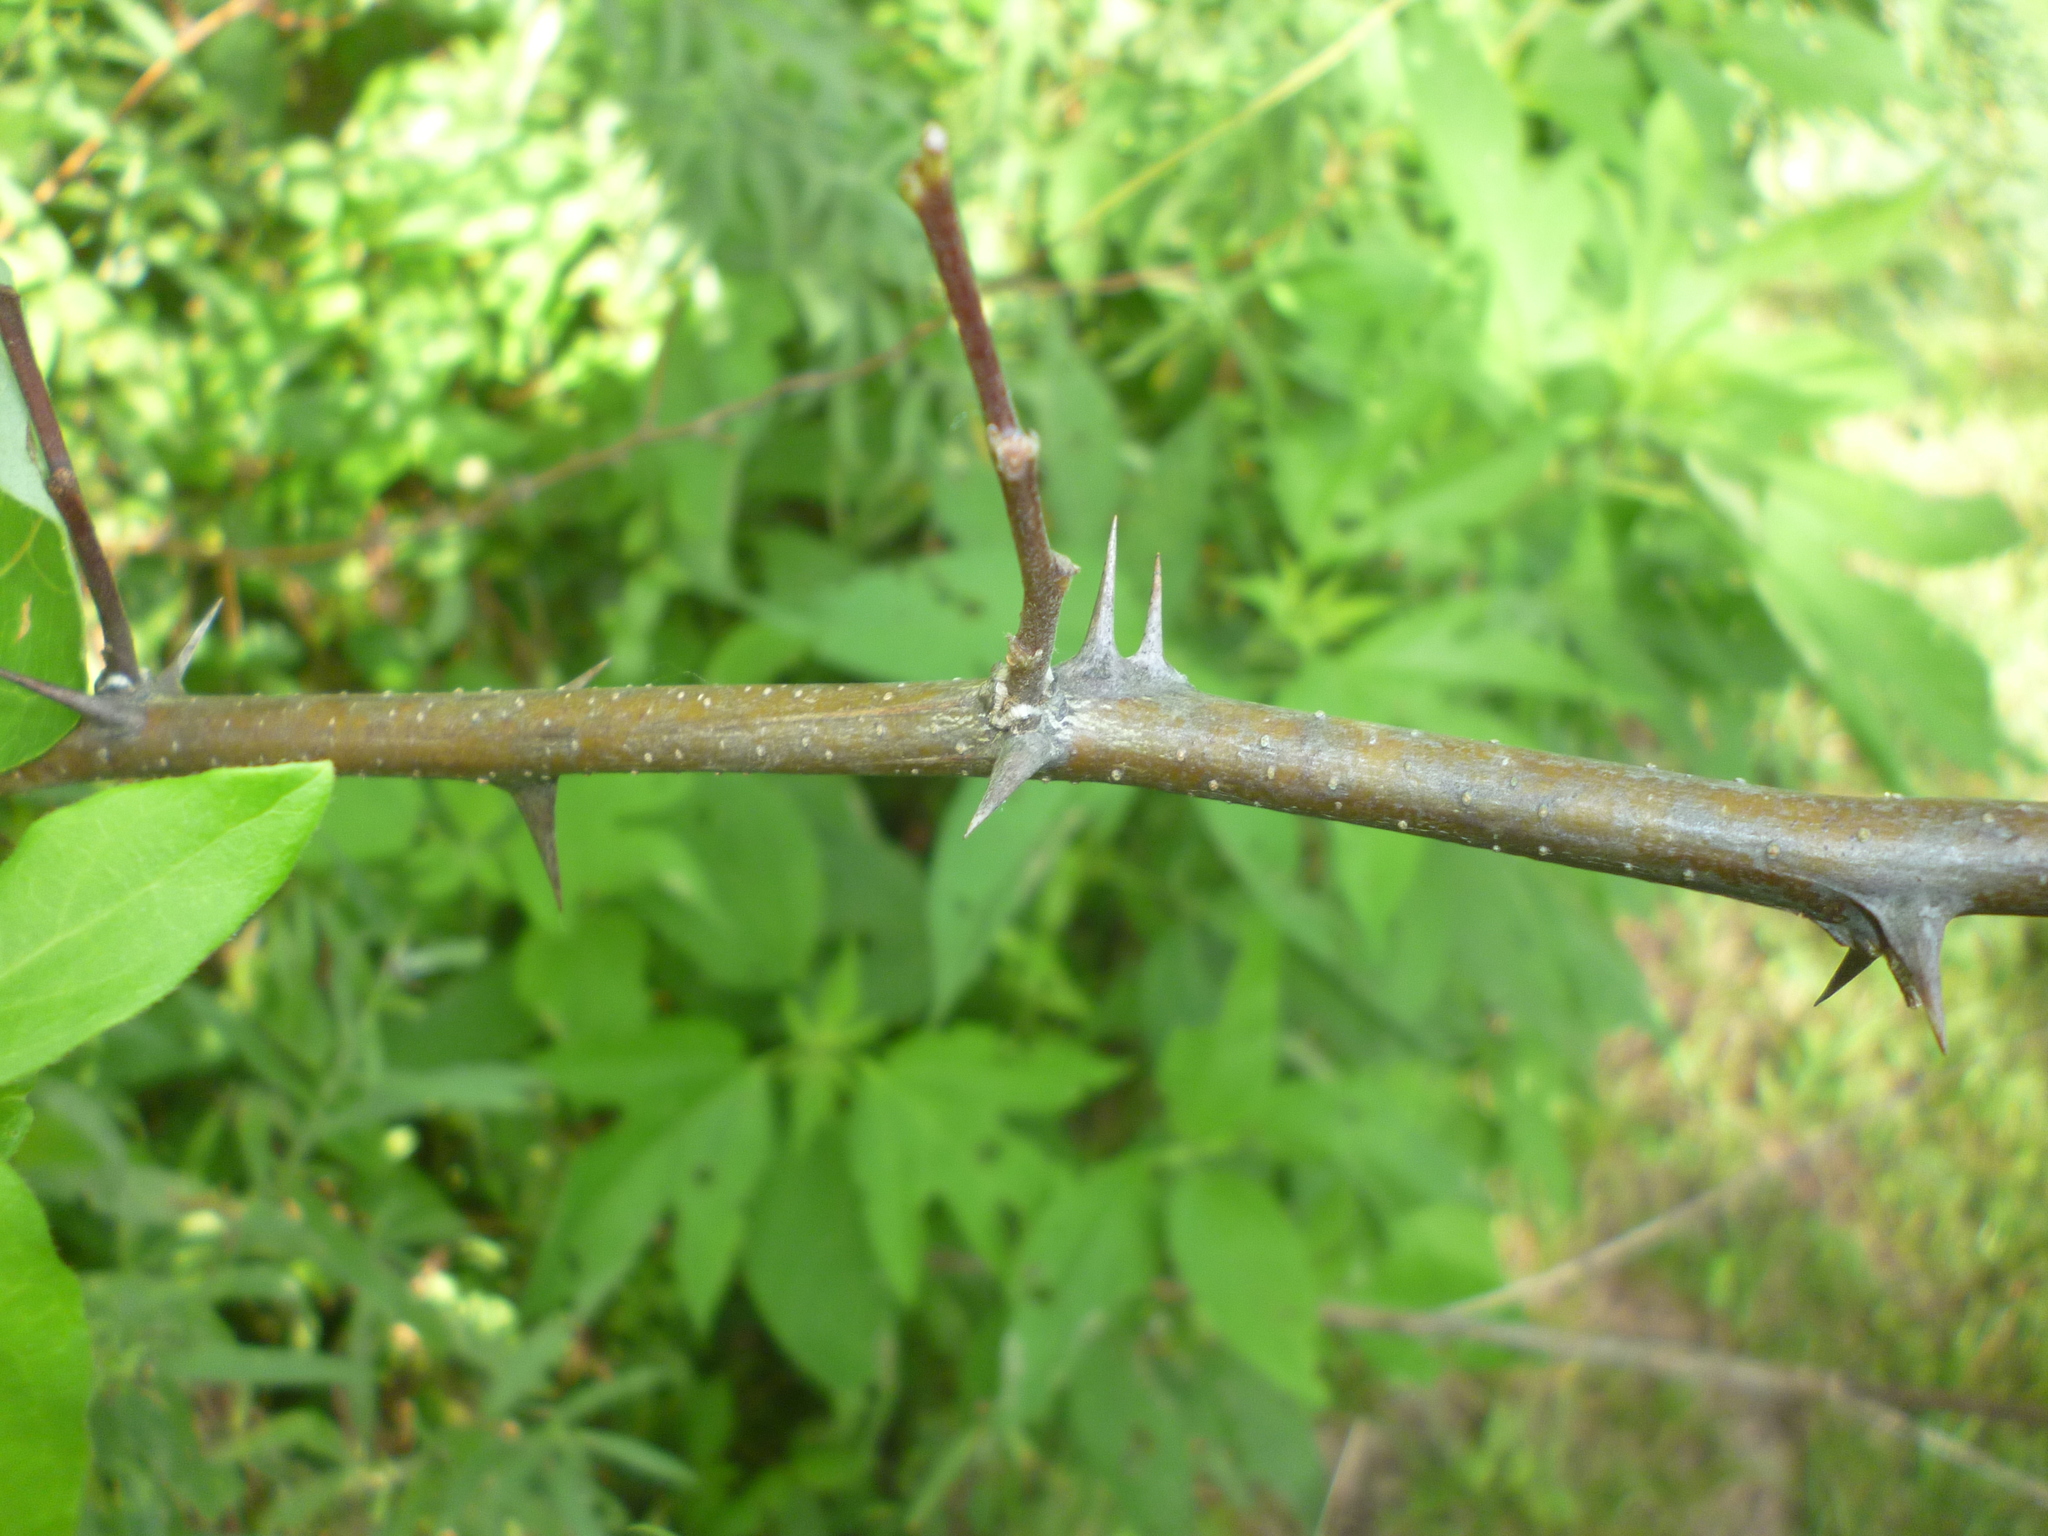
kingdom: Plantae
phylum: Tracheophyta
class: Magnoliopsida
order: Fabales
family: Fabaceae
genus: Robinia
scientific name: Robinia pseudoacacia
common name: Black locust
